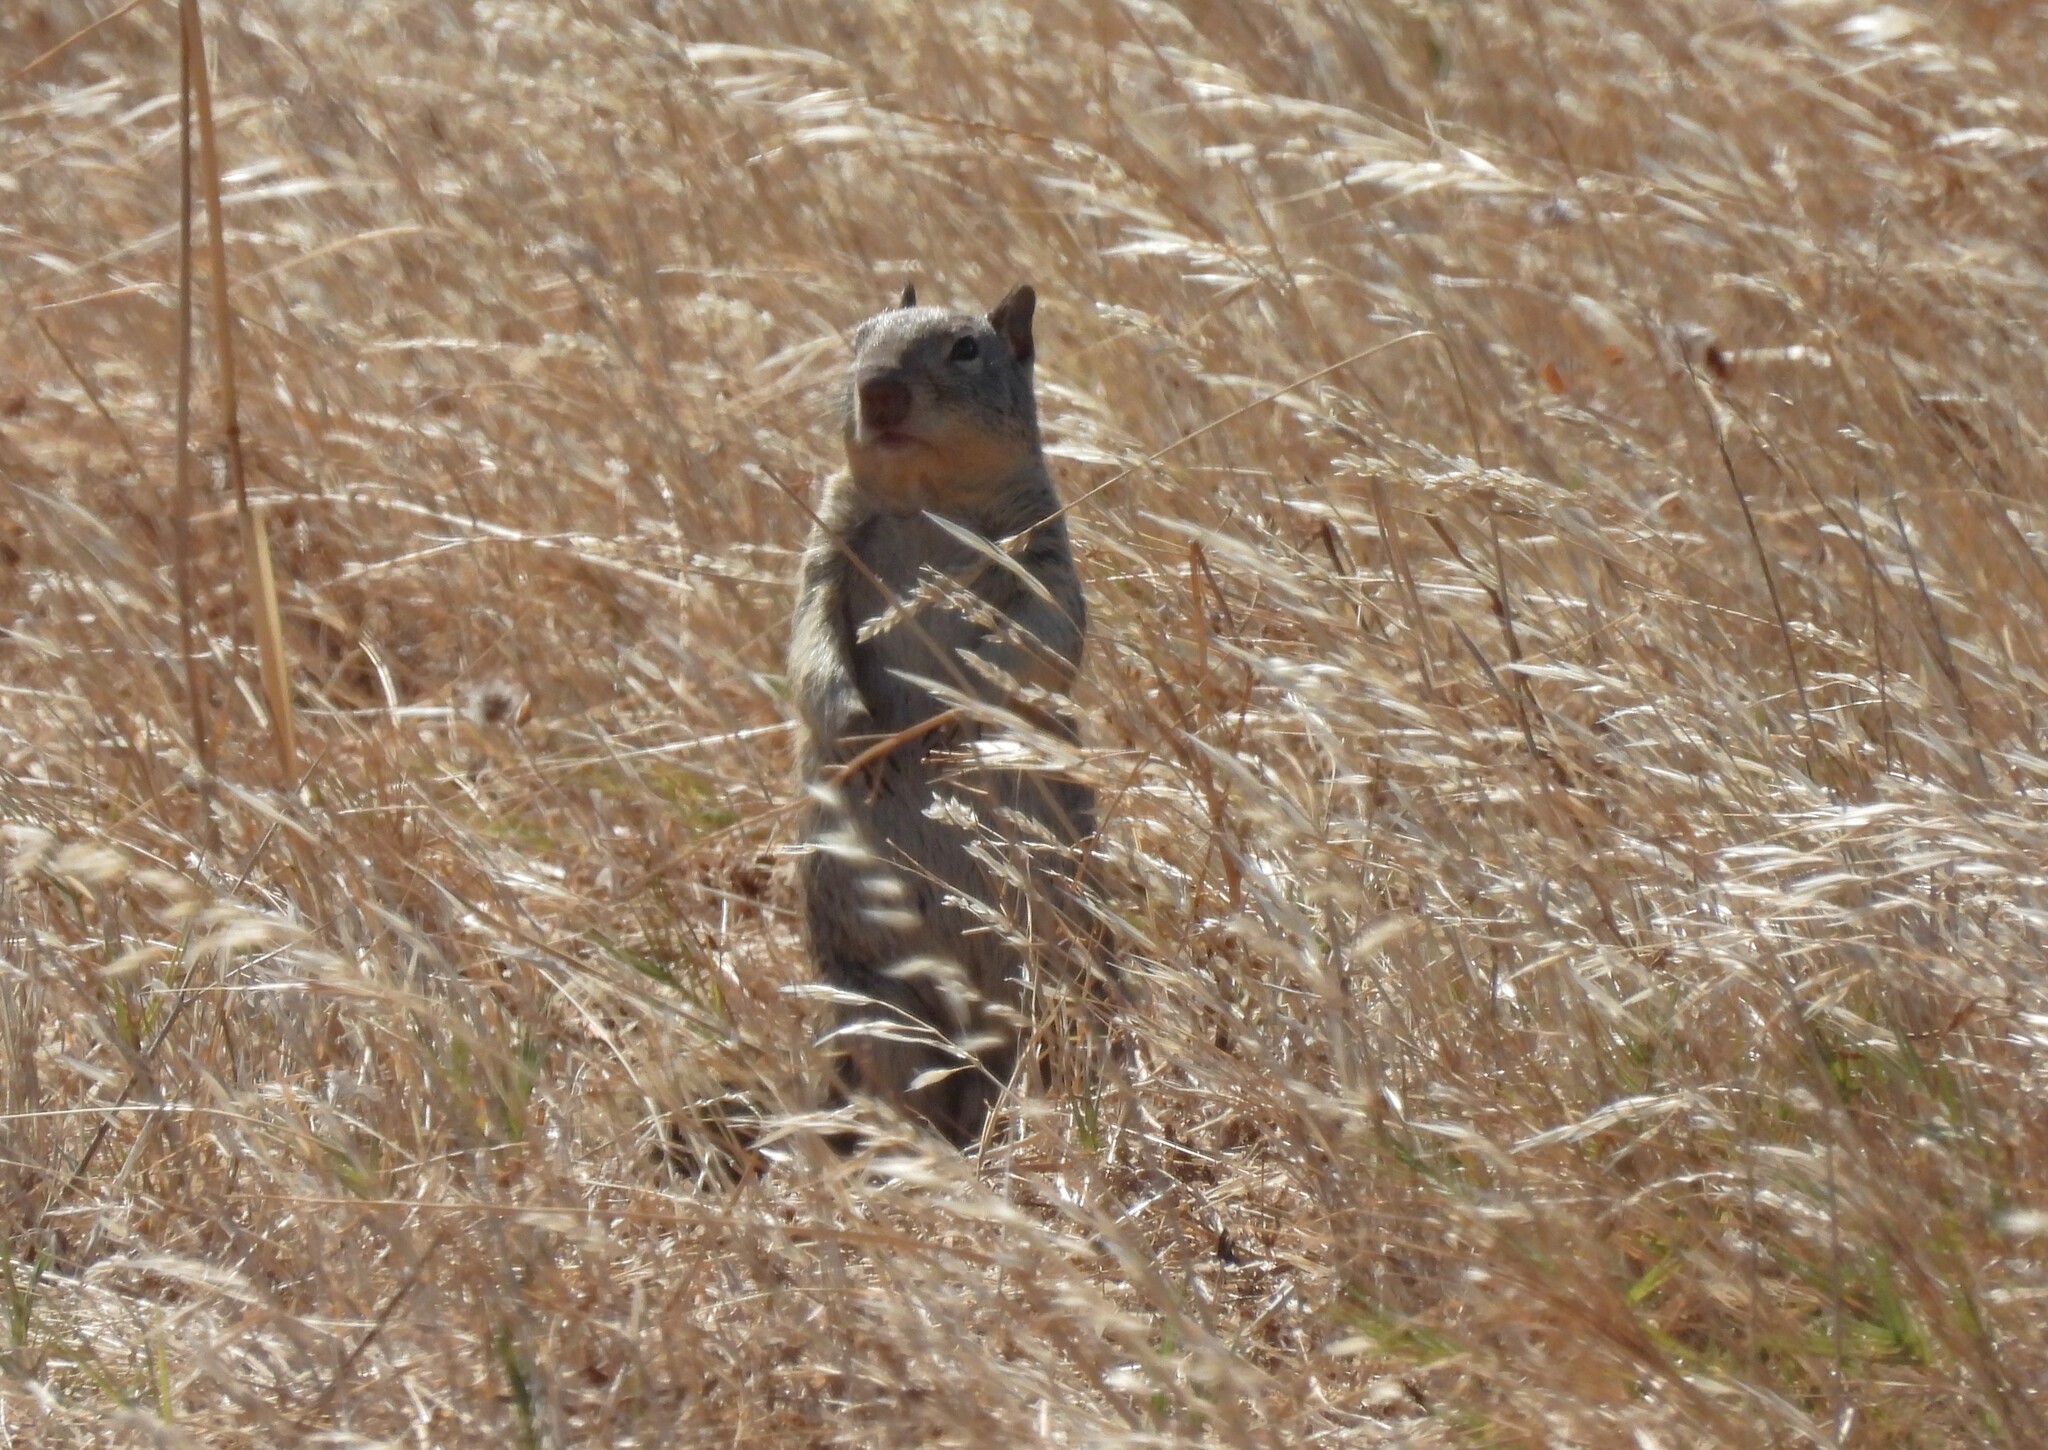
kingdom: Animalia
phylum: Chordata
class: Mammalia
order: Rodentia
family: Sciuridae
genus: Otospermophilus
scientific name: Otospermophilus beecheyi
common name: California ground squirrel
